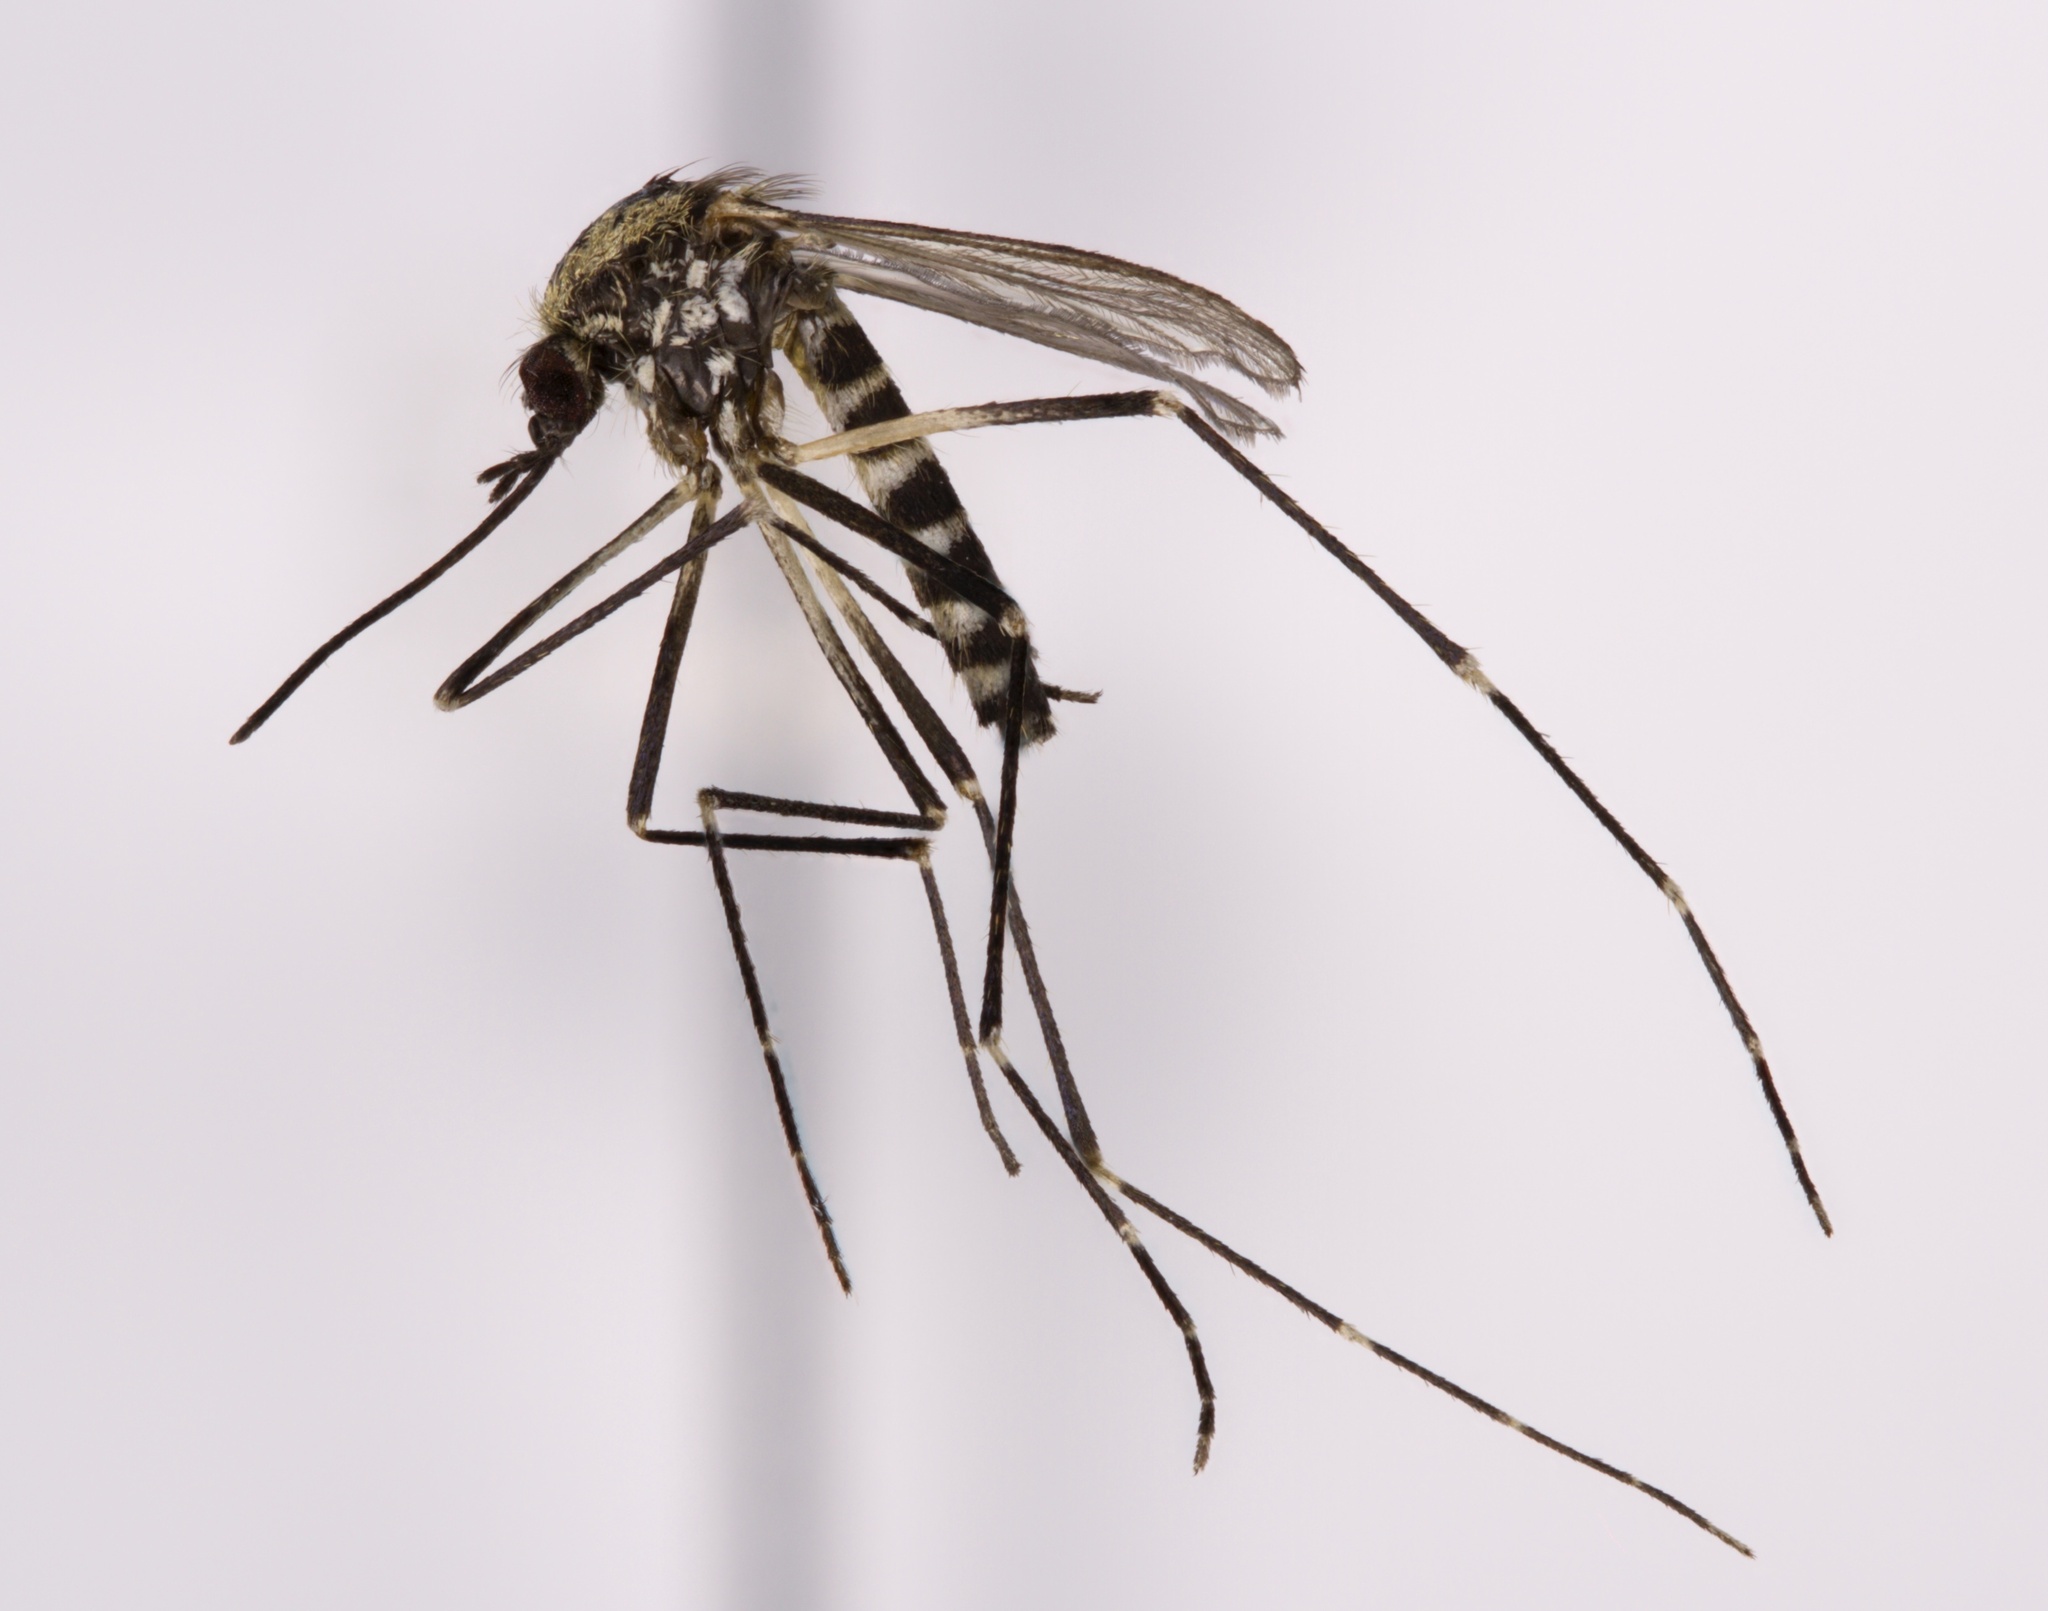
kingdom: Animalia
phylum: Arthropoda
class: Insecta
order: Diptera
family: Culicidae
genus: Aedes
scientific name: Aedes atropalpus
